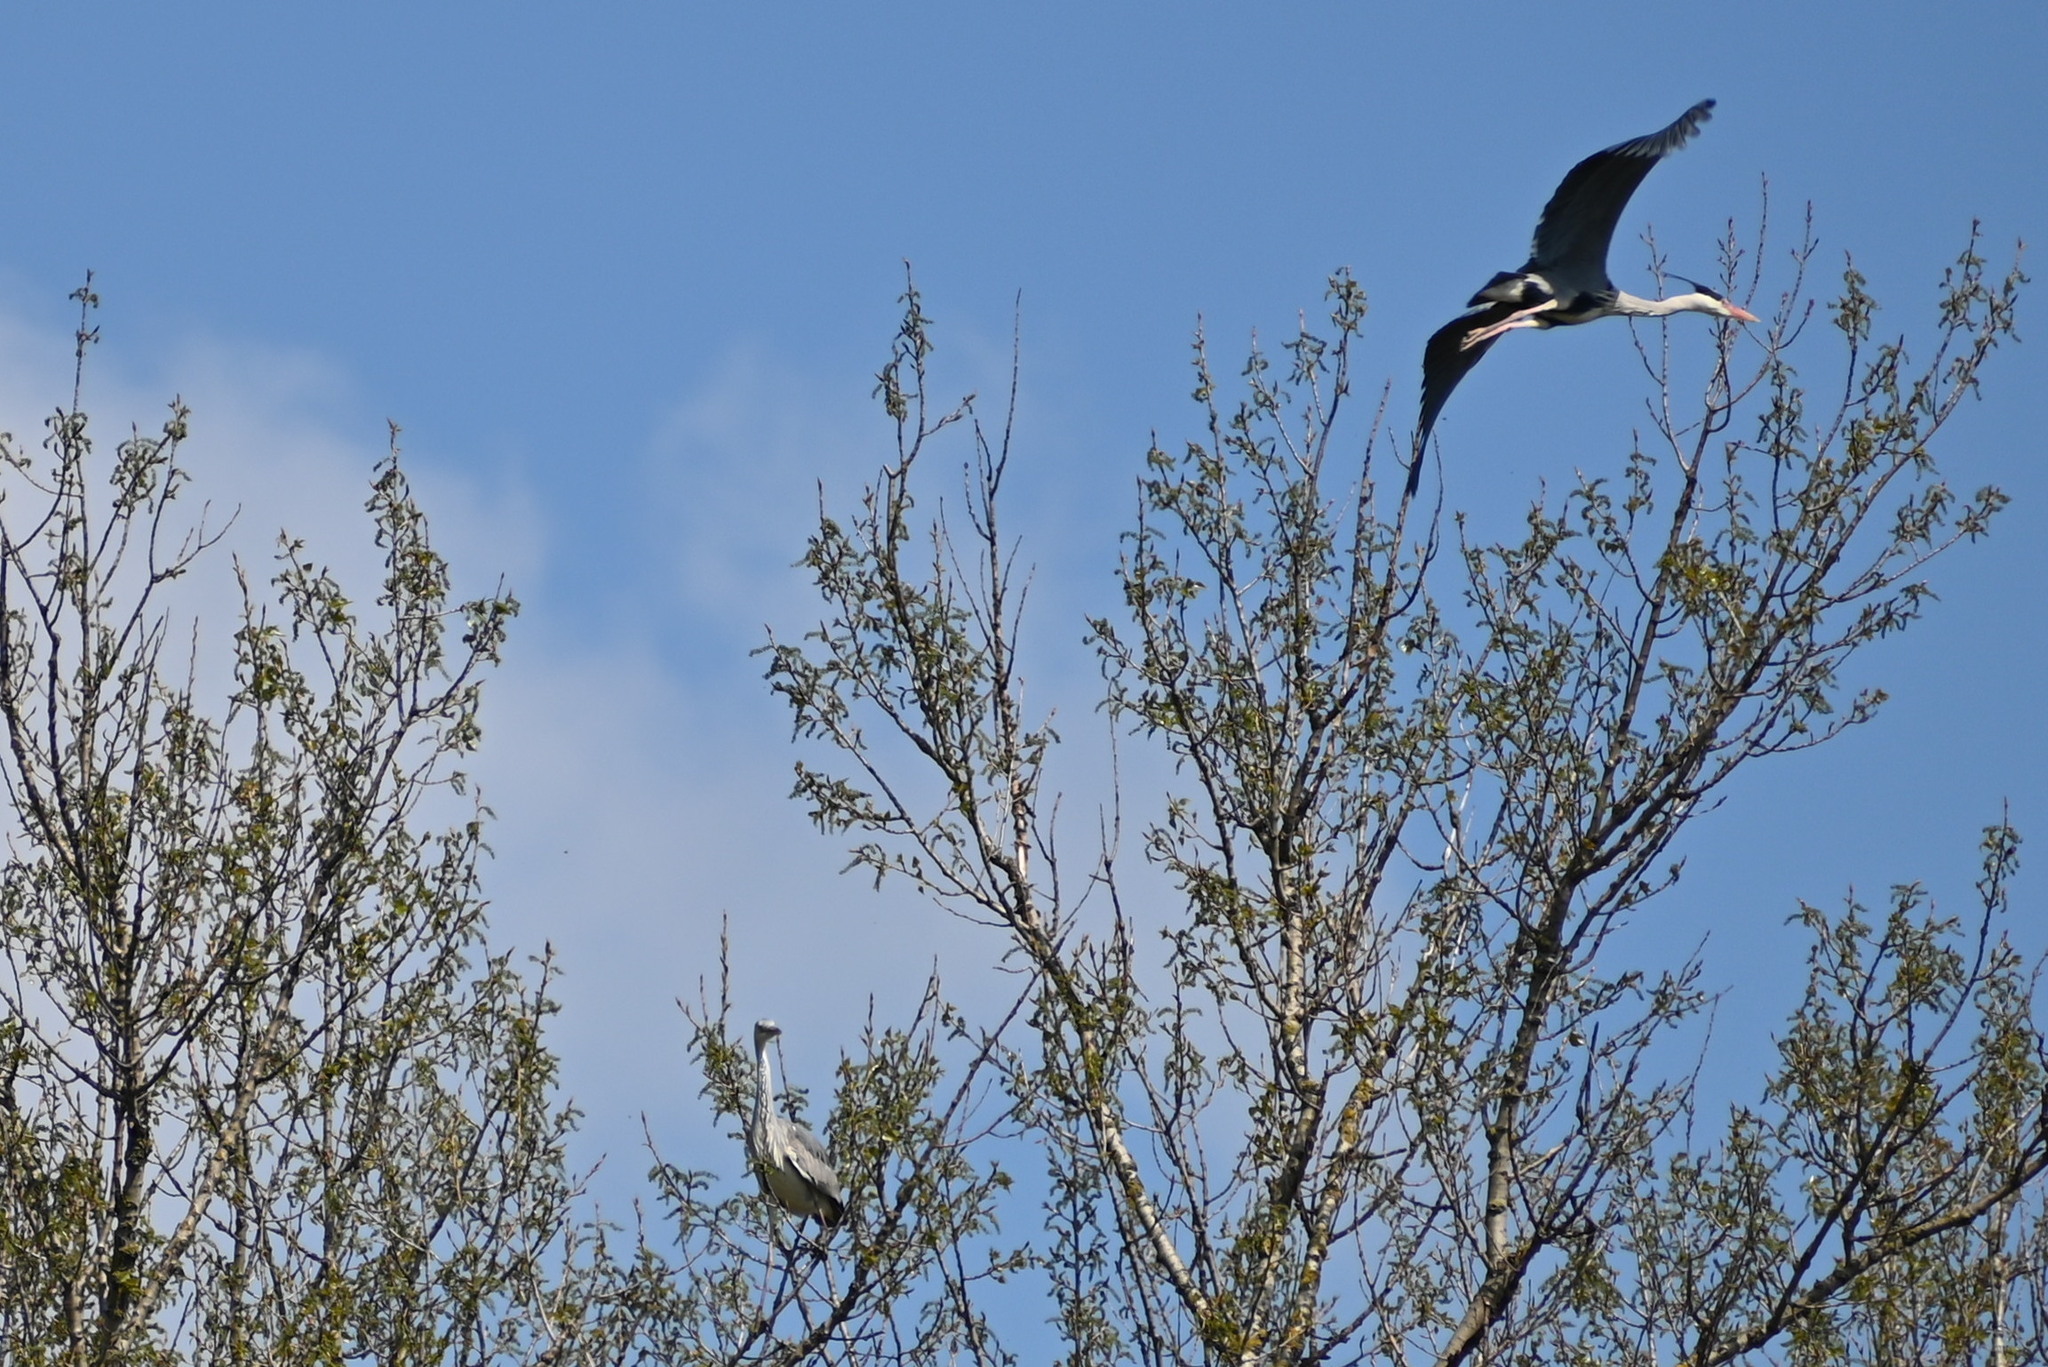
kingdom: Animalia
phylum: Chordata
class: Aves
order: Pelecaniformes
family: Ardeidae
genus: Ardea
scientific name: Ardea cinerea
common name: Grey heron
